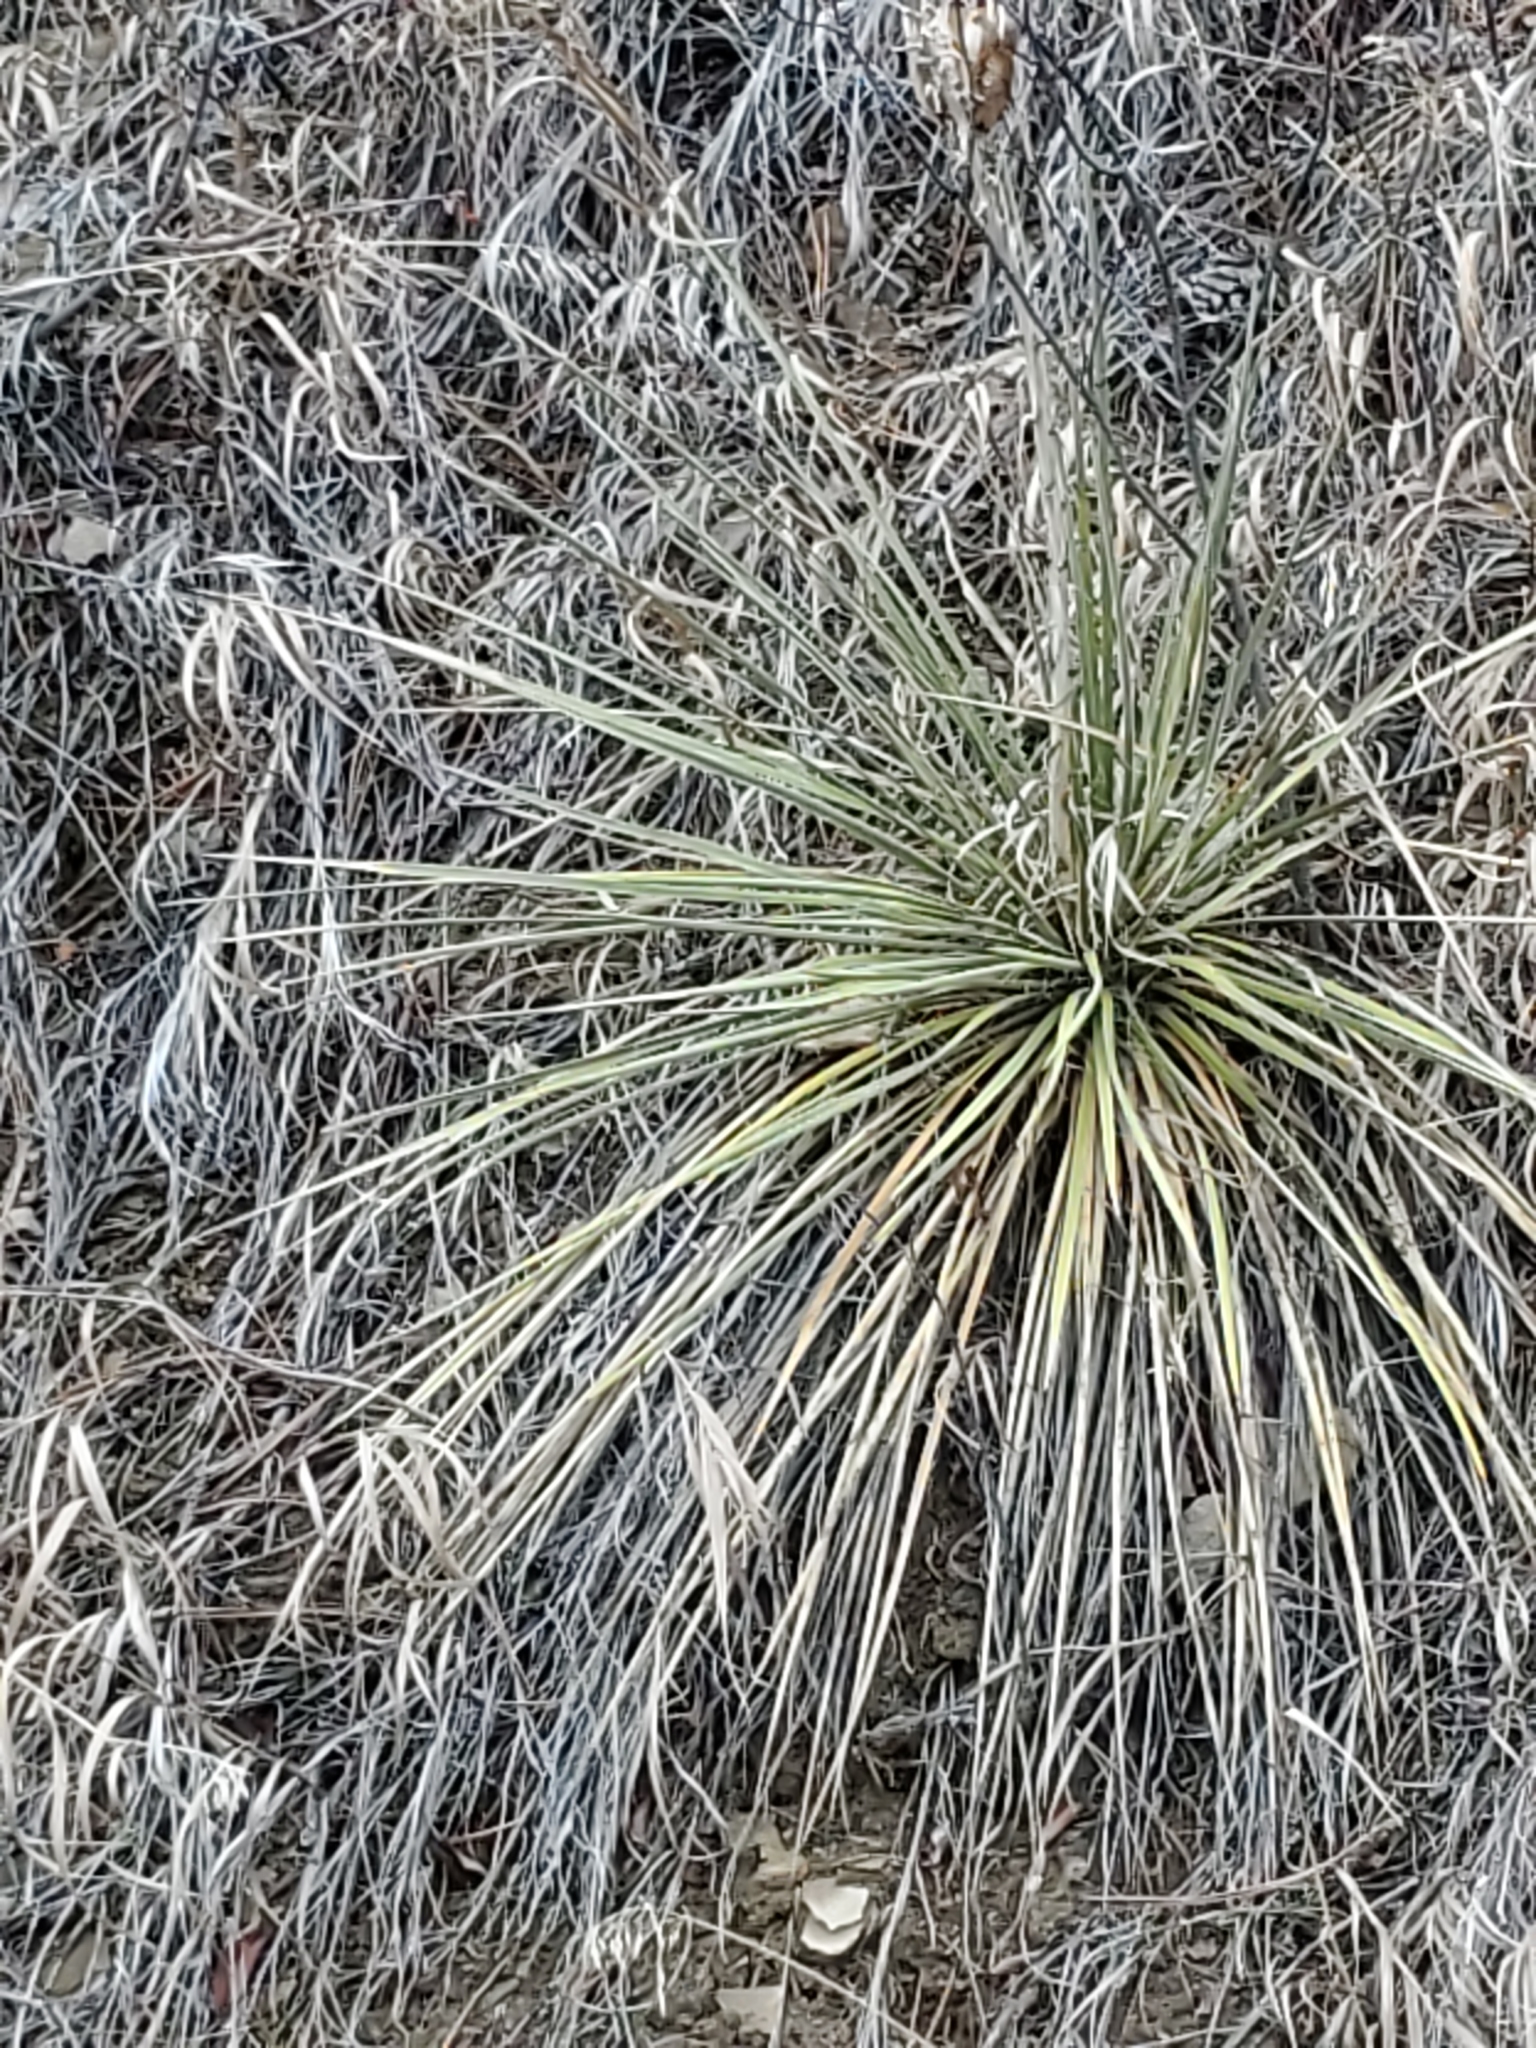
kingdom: Plantae
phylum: Tracheophyta
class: Liliopsida
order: Asparagales
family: Asparagaceae
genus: Yucca
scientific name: Yucca glauca
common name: Great plains yucca
